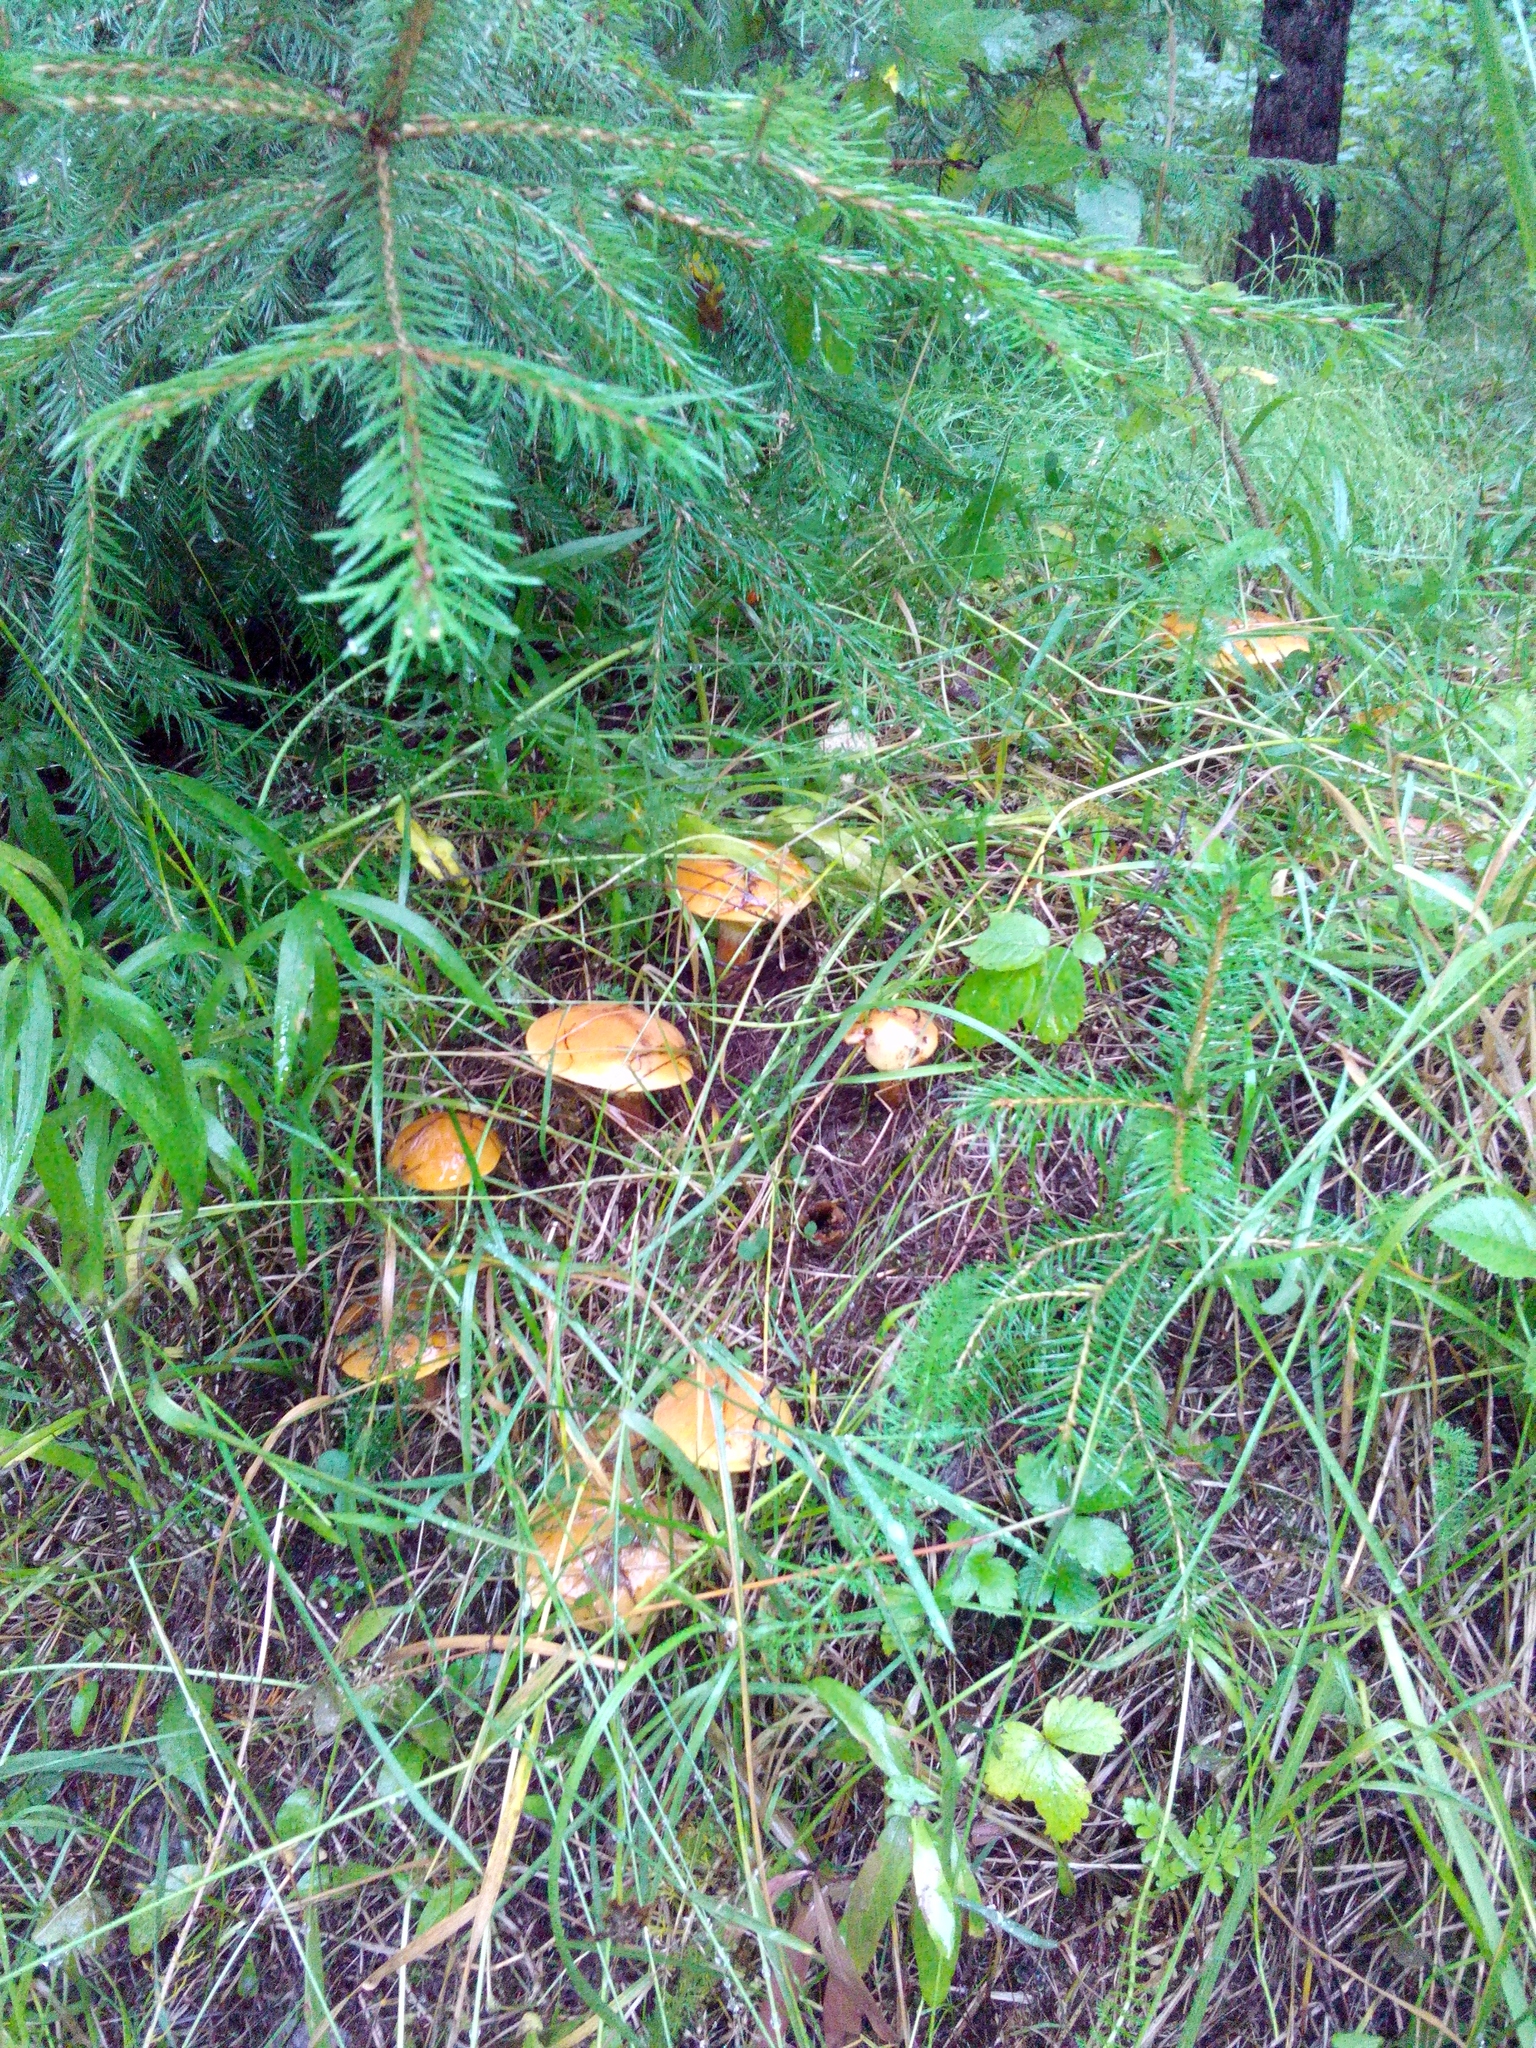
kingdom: Fungi
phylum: Basidiomycota
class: Agaricomycetes
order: Boletales
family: Suillaceae
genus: Suillus
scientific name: Suillus grevillei
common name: Larch bolete
